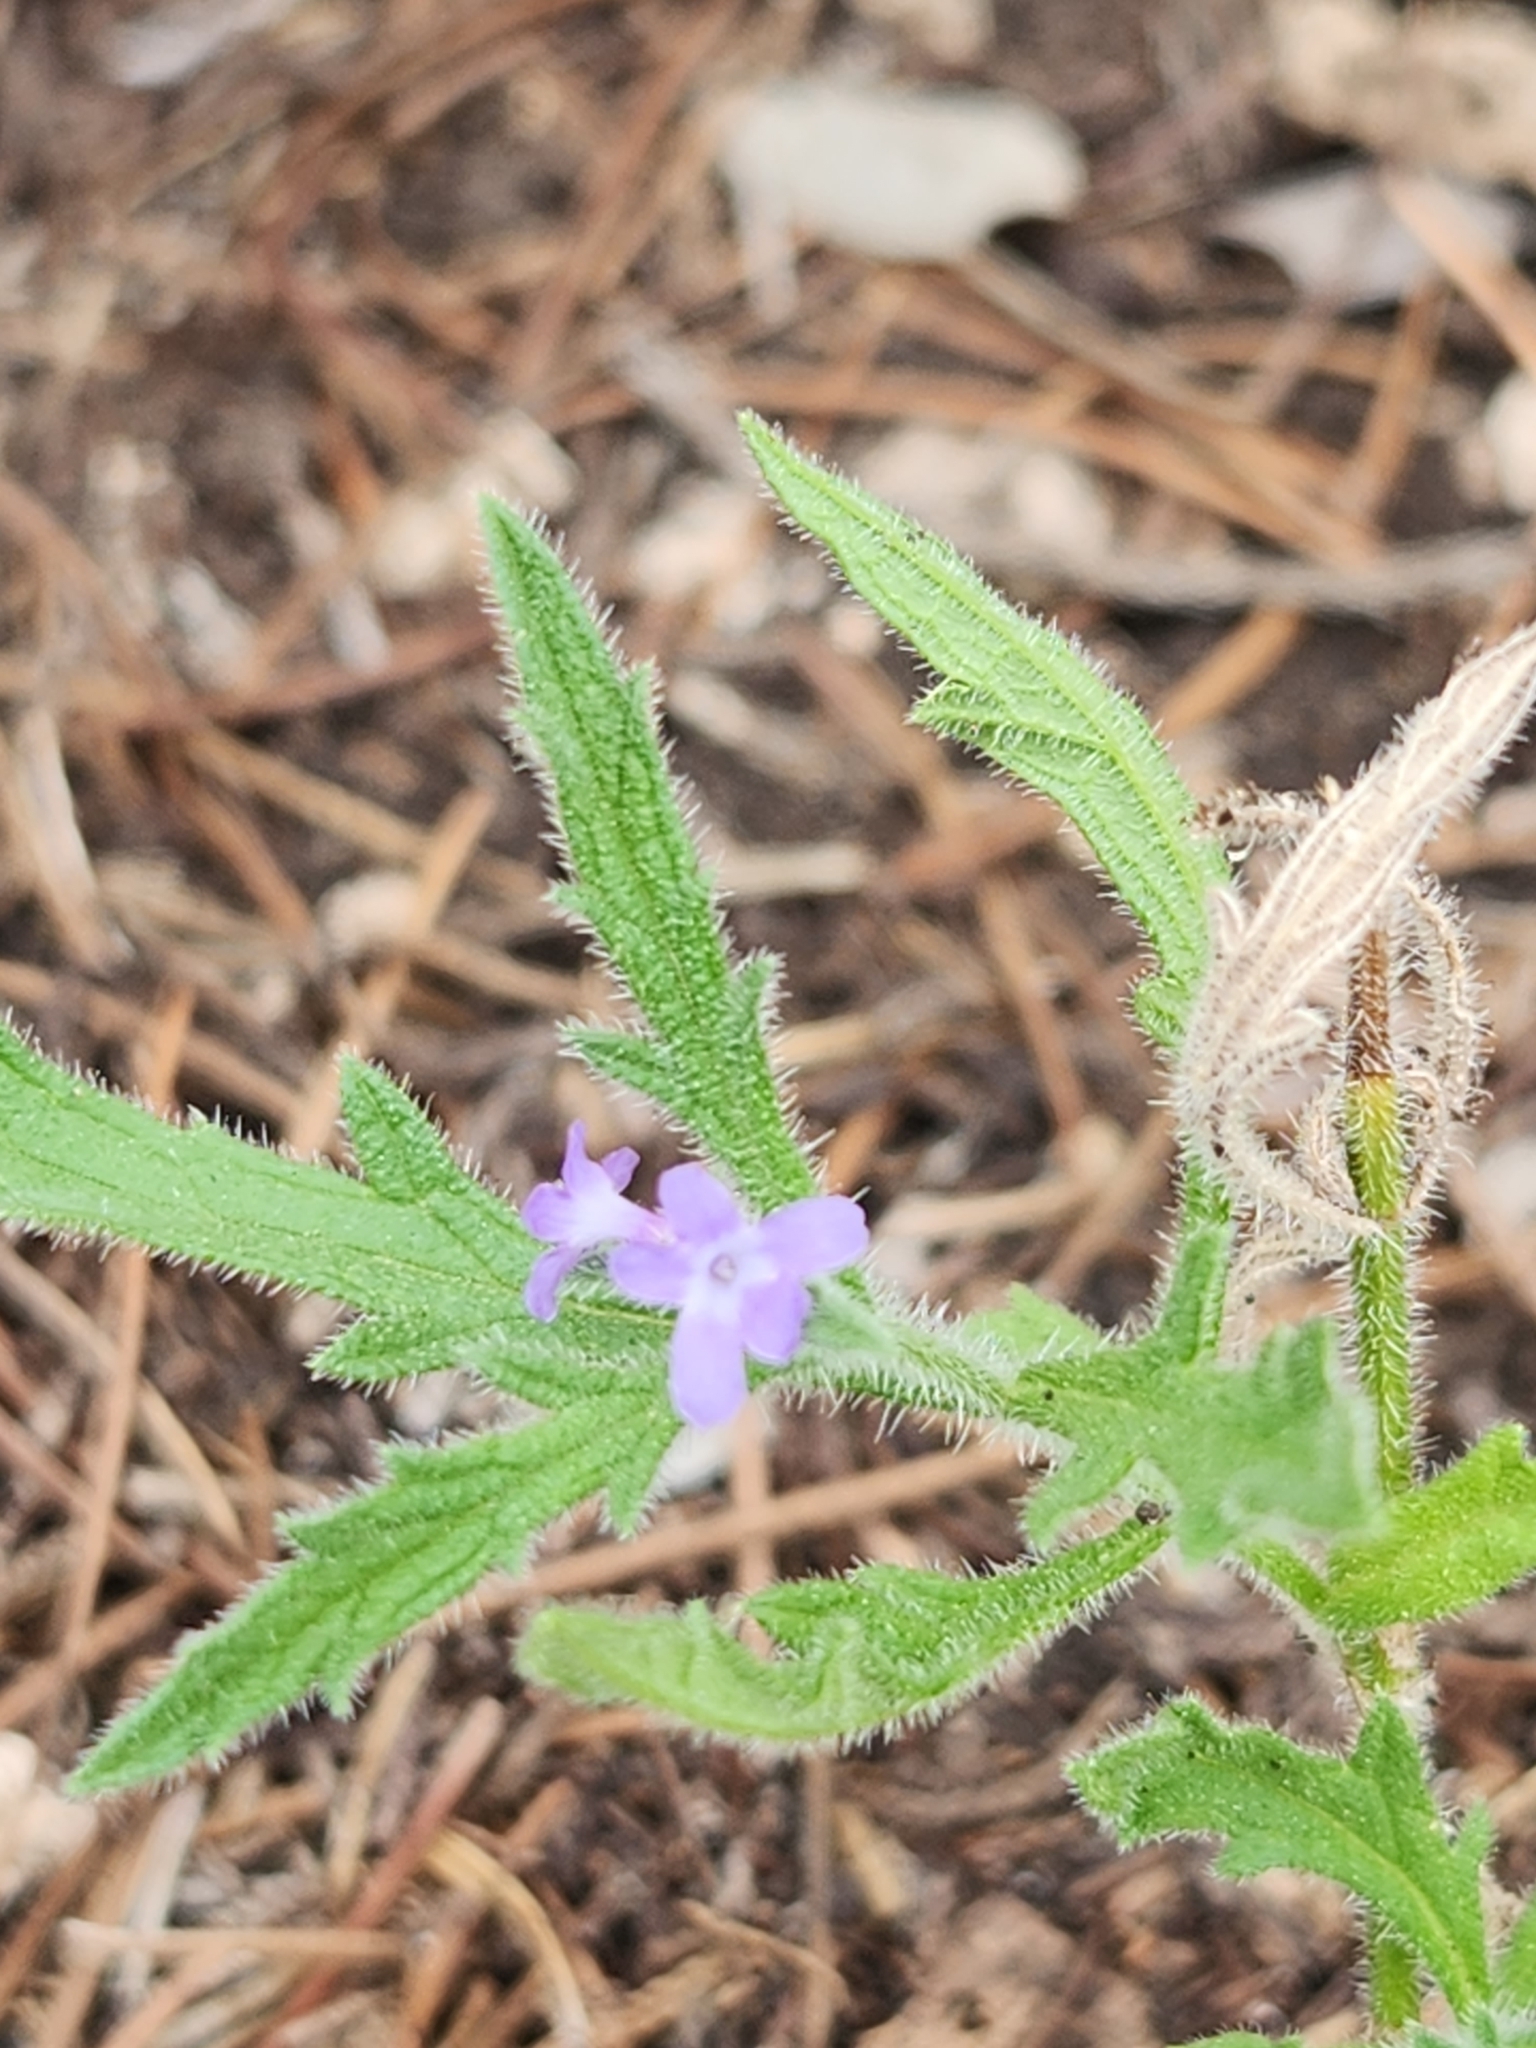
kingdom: Plantae
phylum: Tracheophyta
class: Magnoliopsida
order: Lamiales
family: Verbenaceae
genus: Verbena
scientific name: Verbena canescens
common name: Gray vervain
